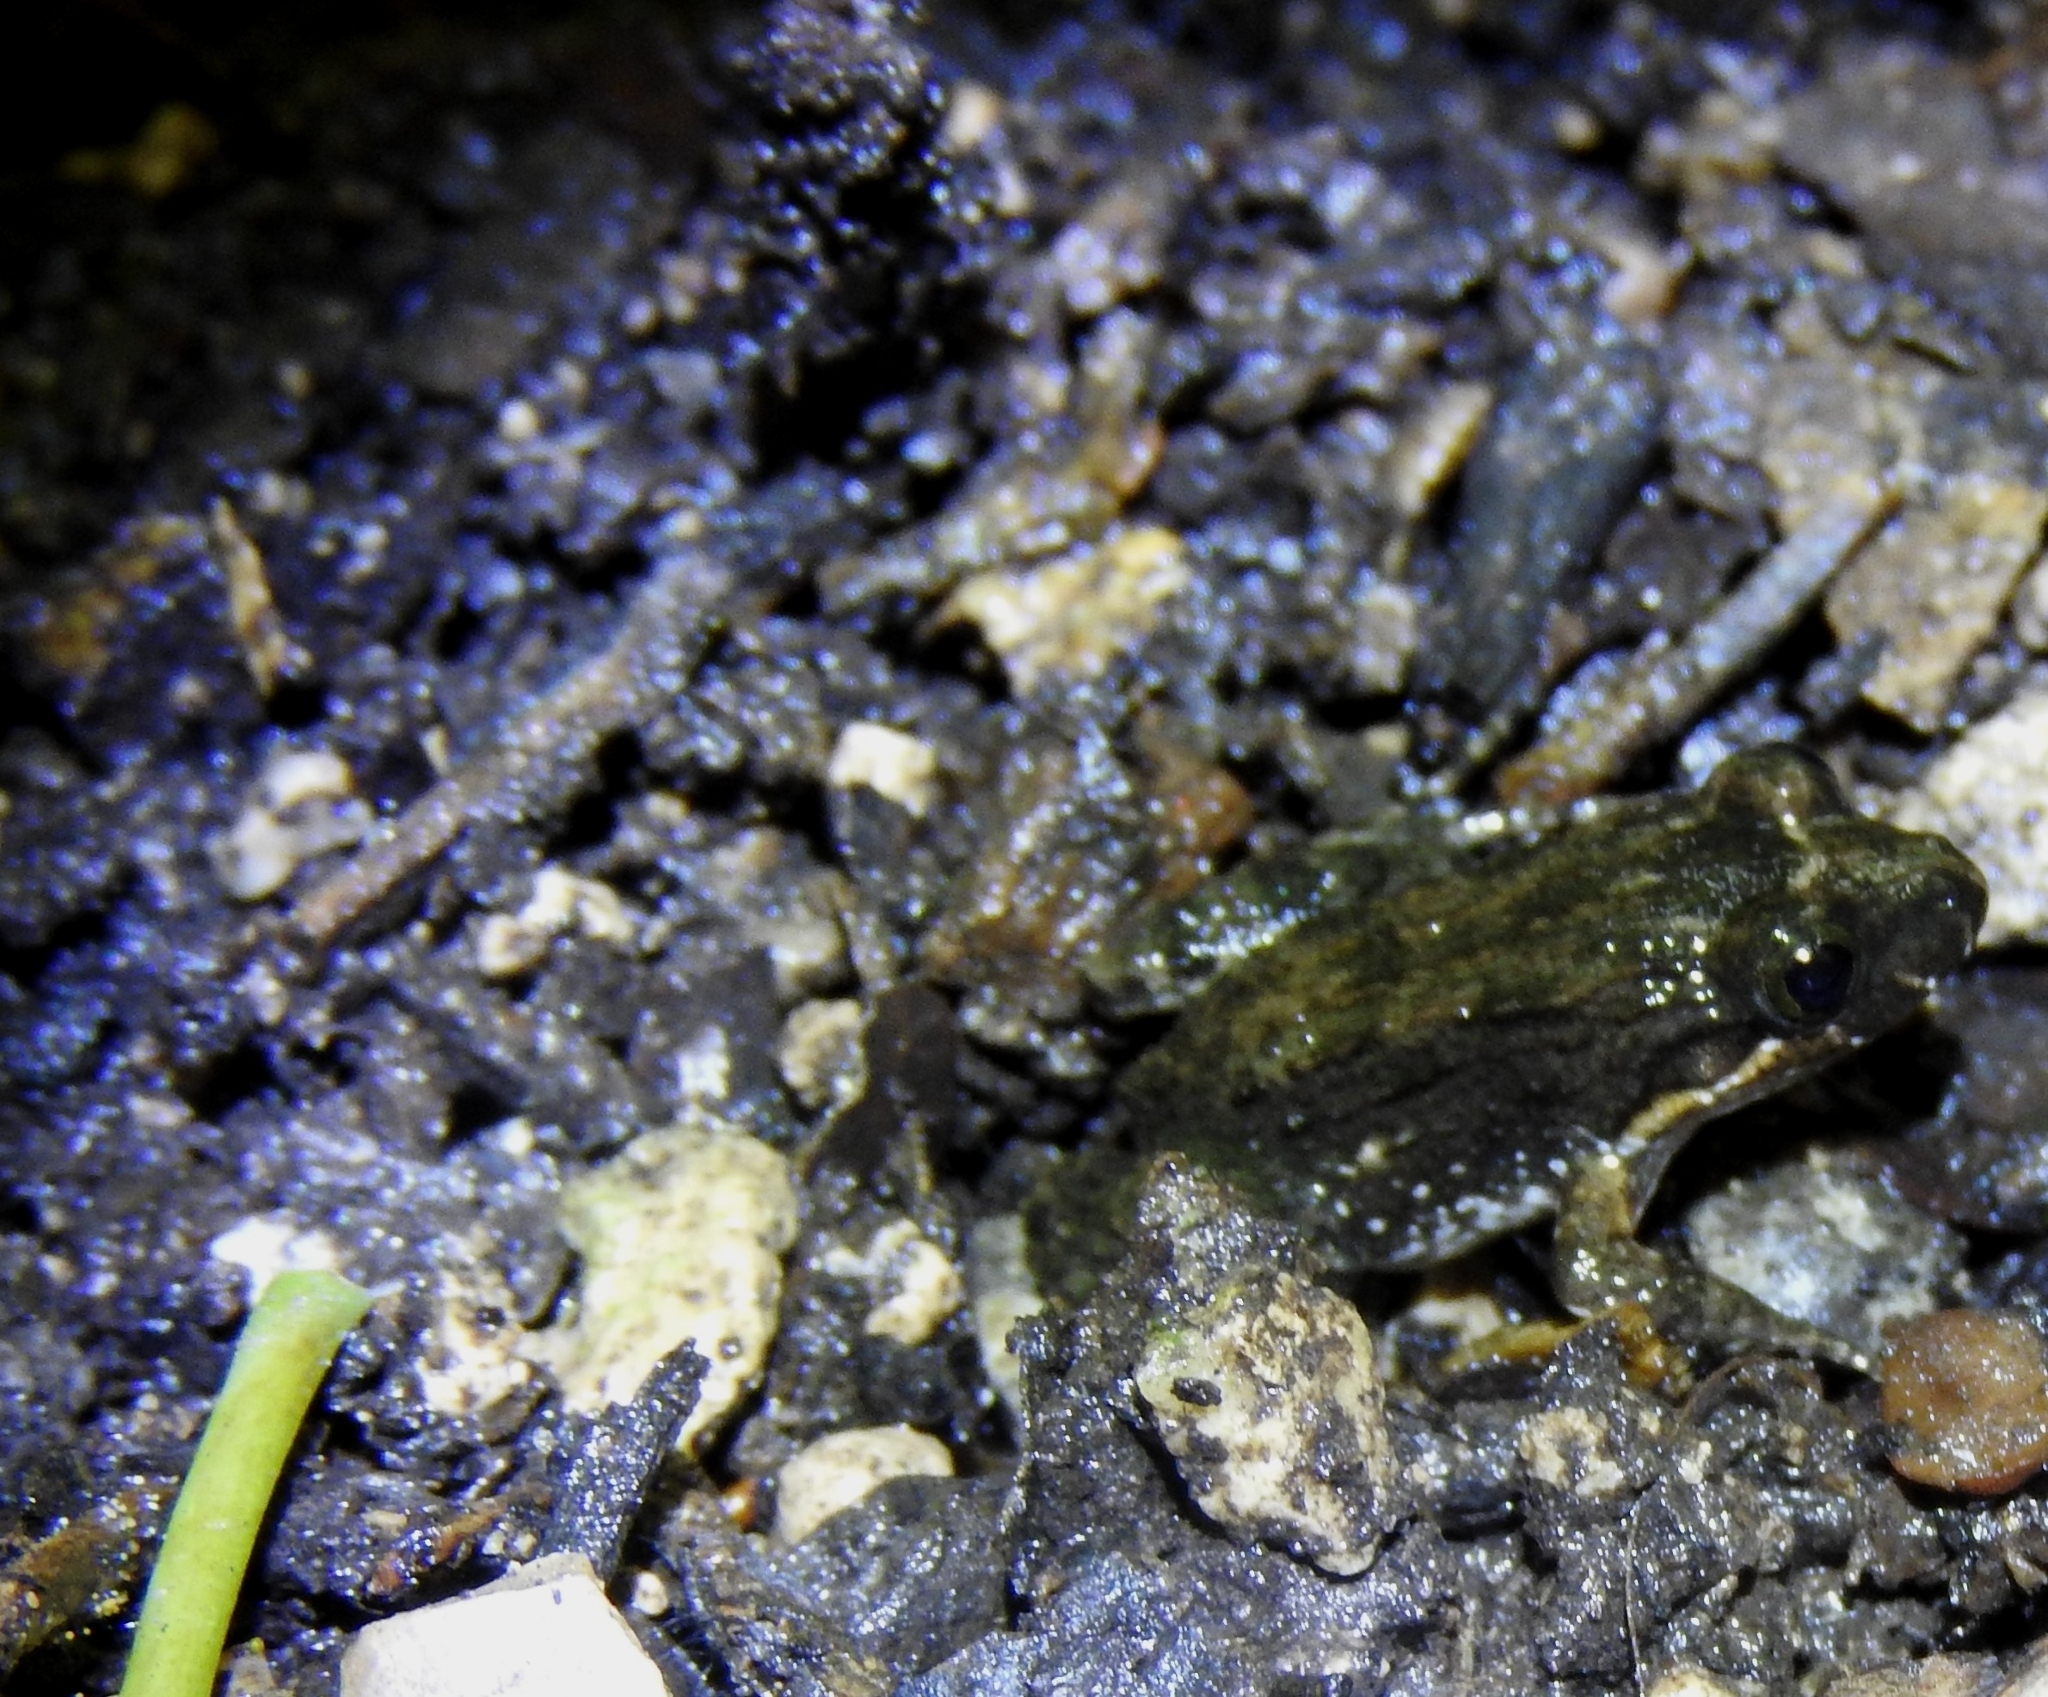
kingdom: Animalia
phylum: Chordata
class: Amphibia
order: Anura
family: Leptodactylidae
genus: Leptodactylus
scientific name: Leptodactylus melanonotus
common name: Fringe-toed foamfrog
